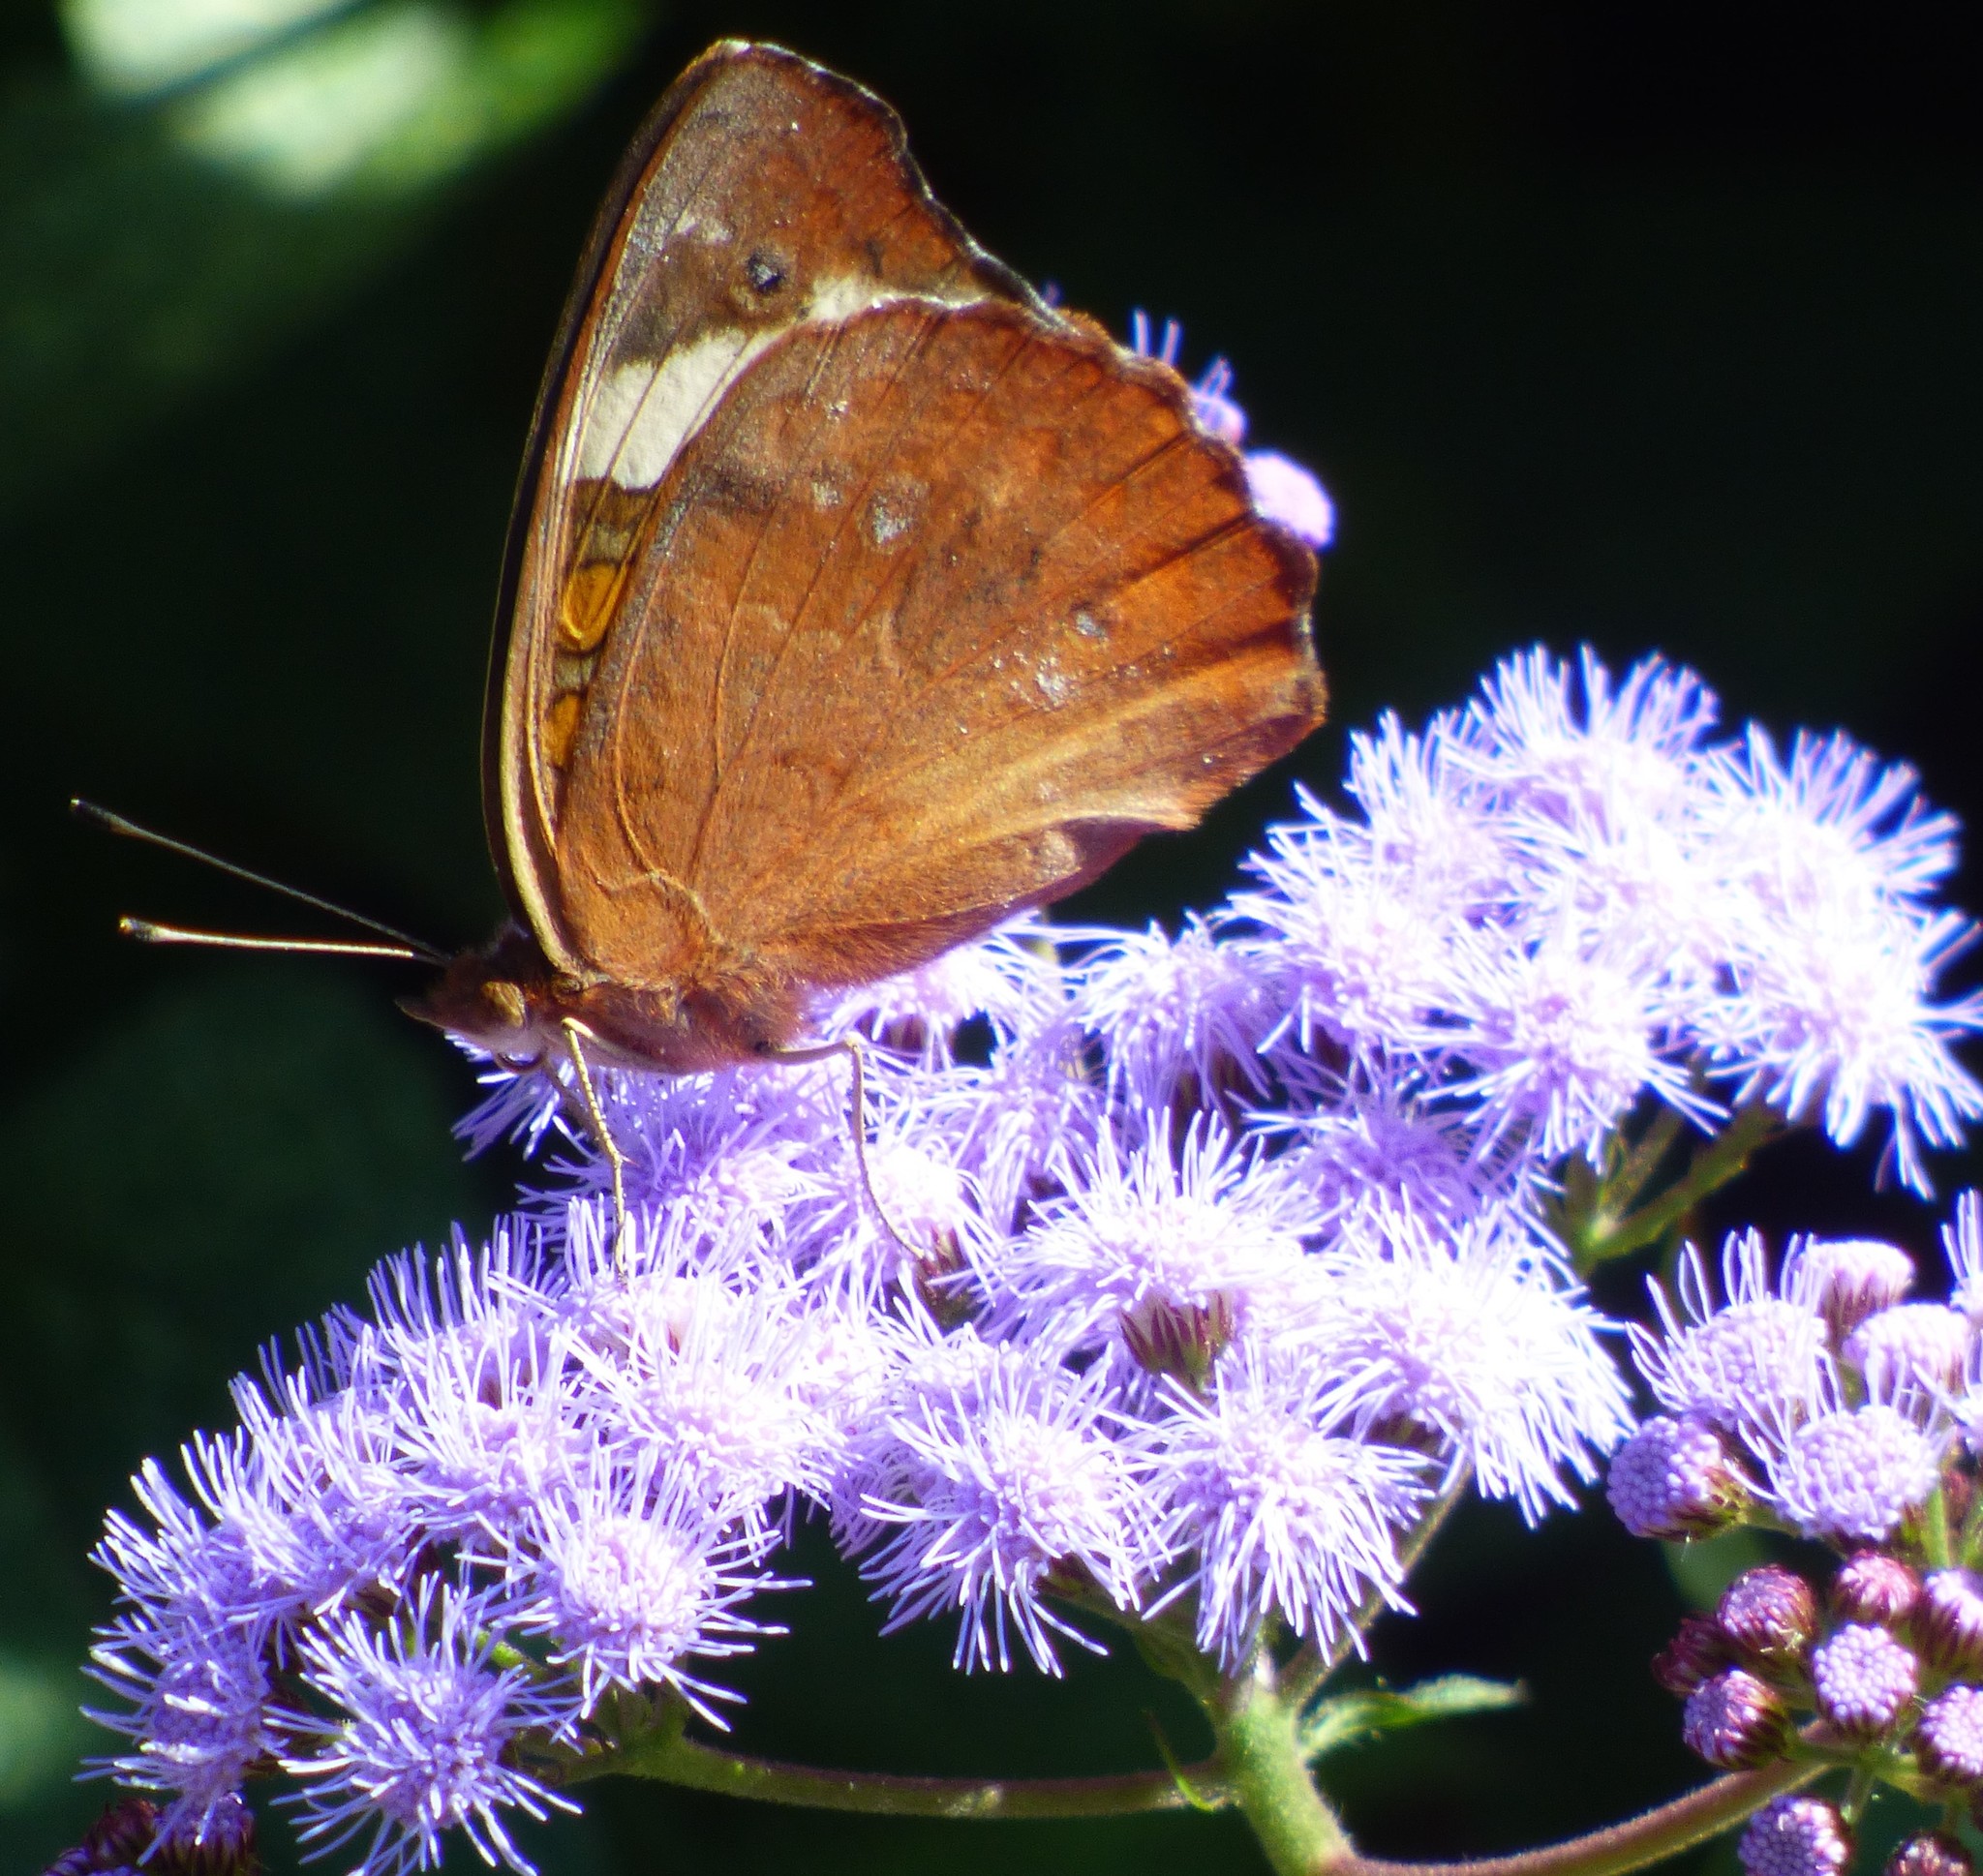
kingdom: Animalia
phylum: Arthropoda
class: Insecta
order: Lepidoptera
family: Nymphalidae
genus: Junonia
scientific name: Junonia coenia
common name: Common buckeye
